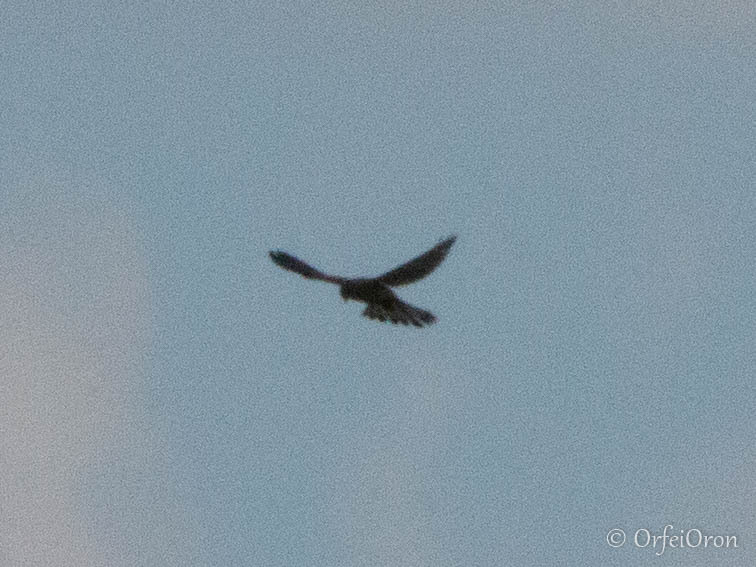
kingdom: Animalia
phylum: Chordata
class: Aves
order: Falconiformes
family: Falconidae
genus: Falco
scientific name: Falco tinnunculus
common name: Common kestrel
